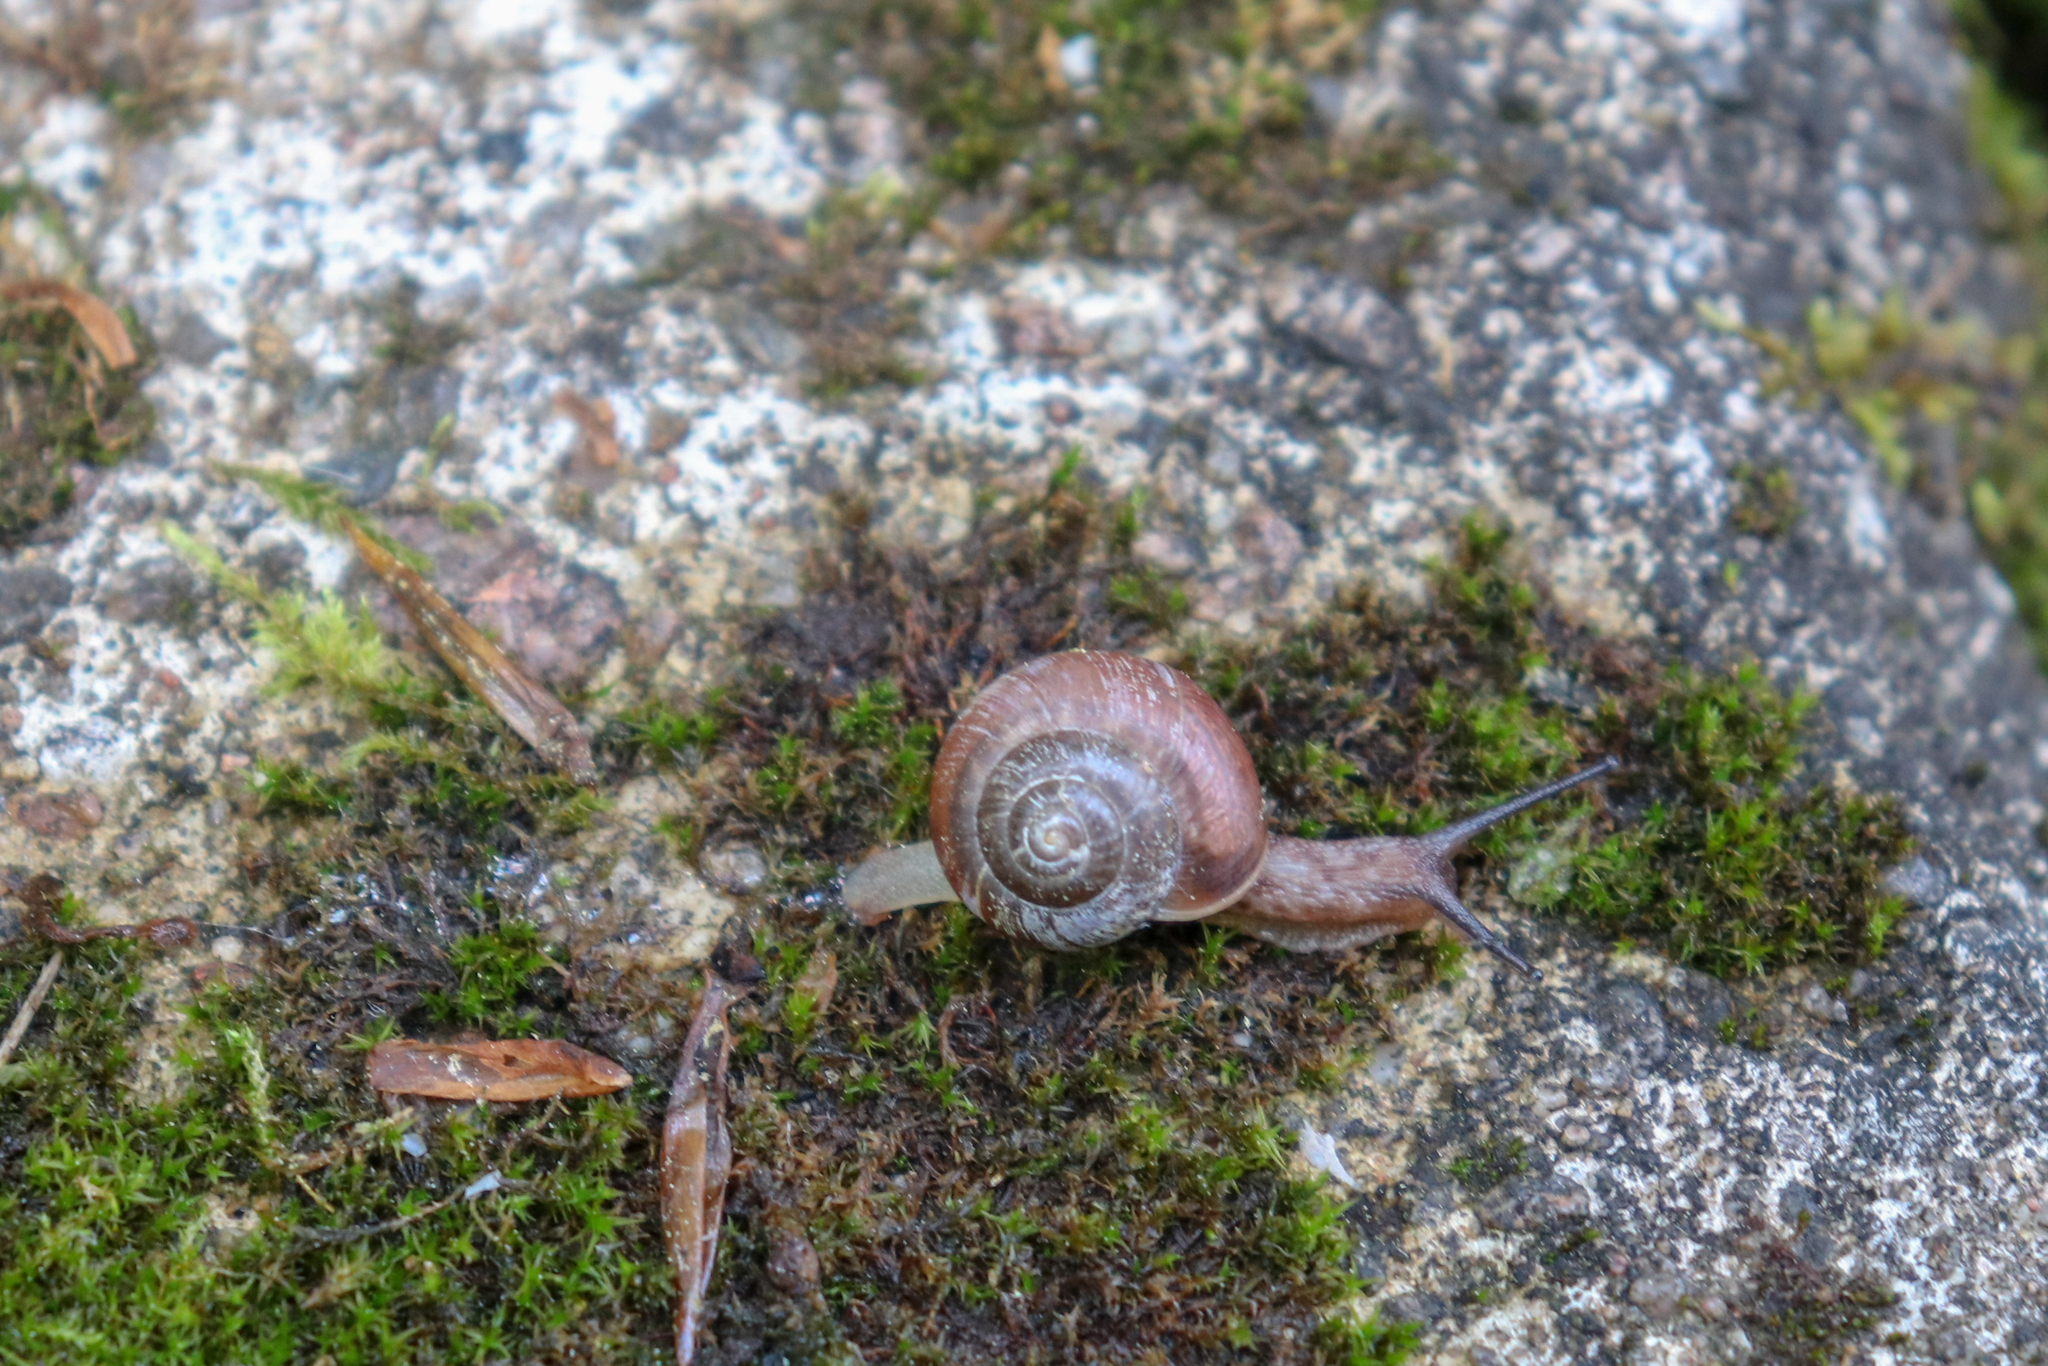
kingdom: Animalia
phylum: Mollusca
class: Gastropoda
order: Stylommatophora
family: Camaenidae
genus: Fruticicola
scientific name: Fruticicola fruticum
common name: Bush snail
